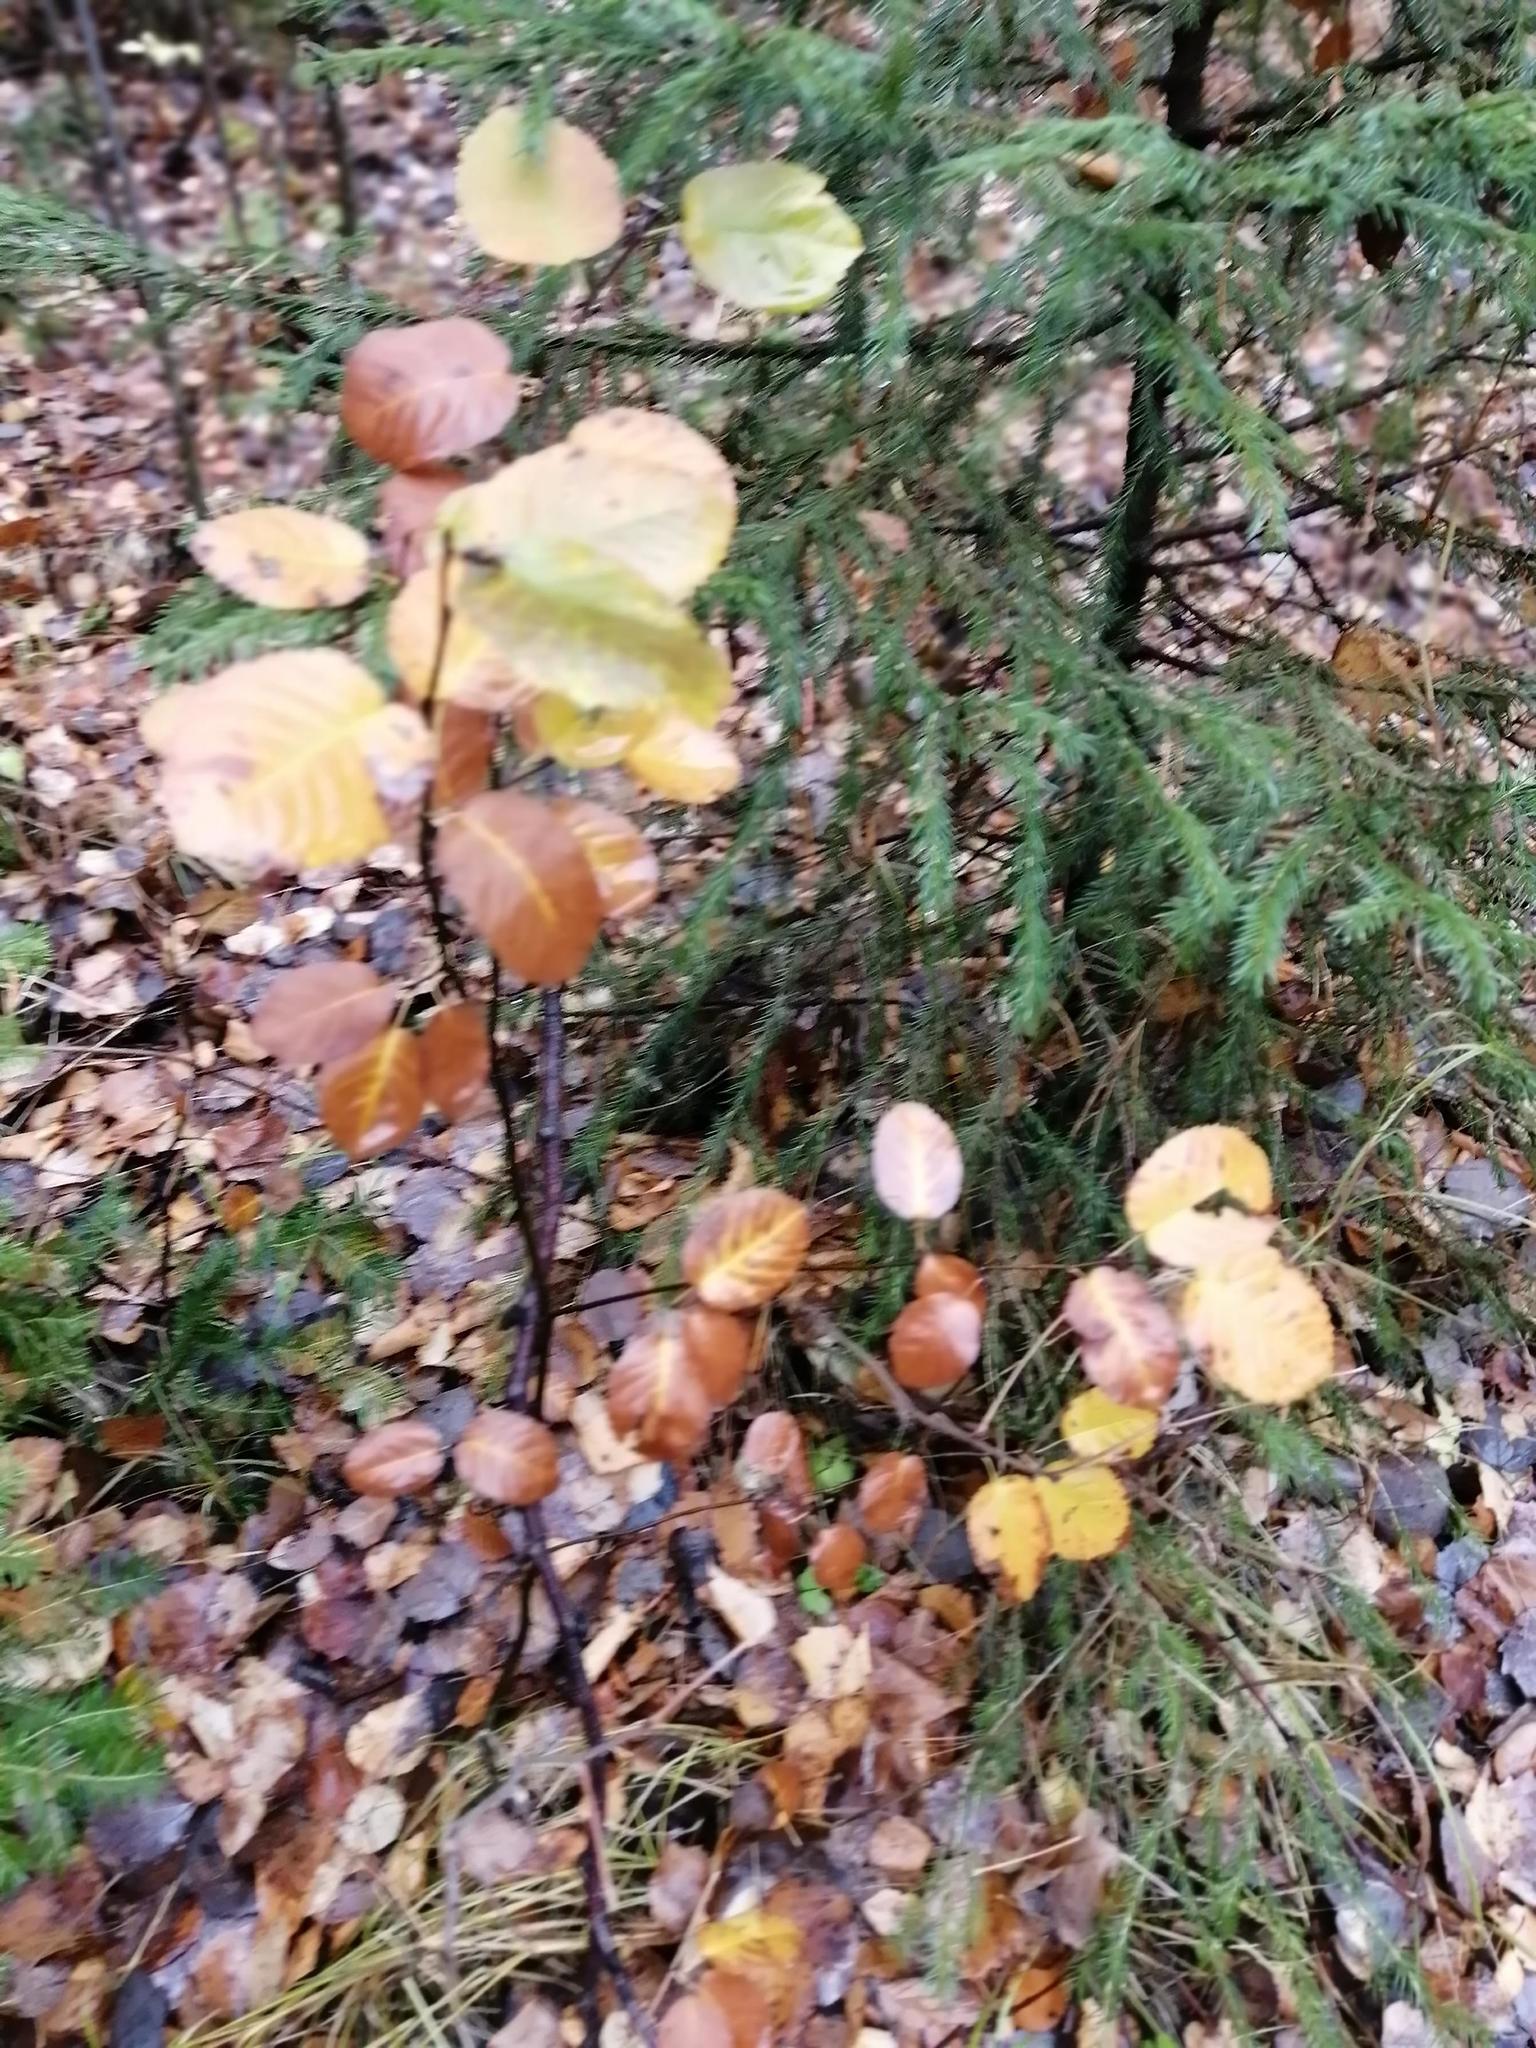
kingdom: Plantae
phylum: Tracheophyta
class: Magnoliopsida
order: Rosales
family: Rosaceae
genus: Amelanchier
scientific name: Amelanchier alnifolia
